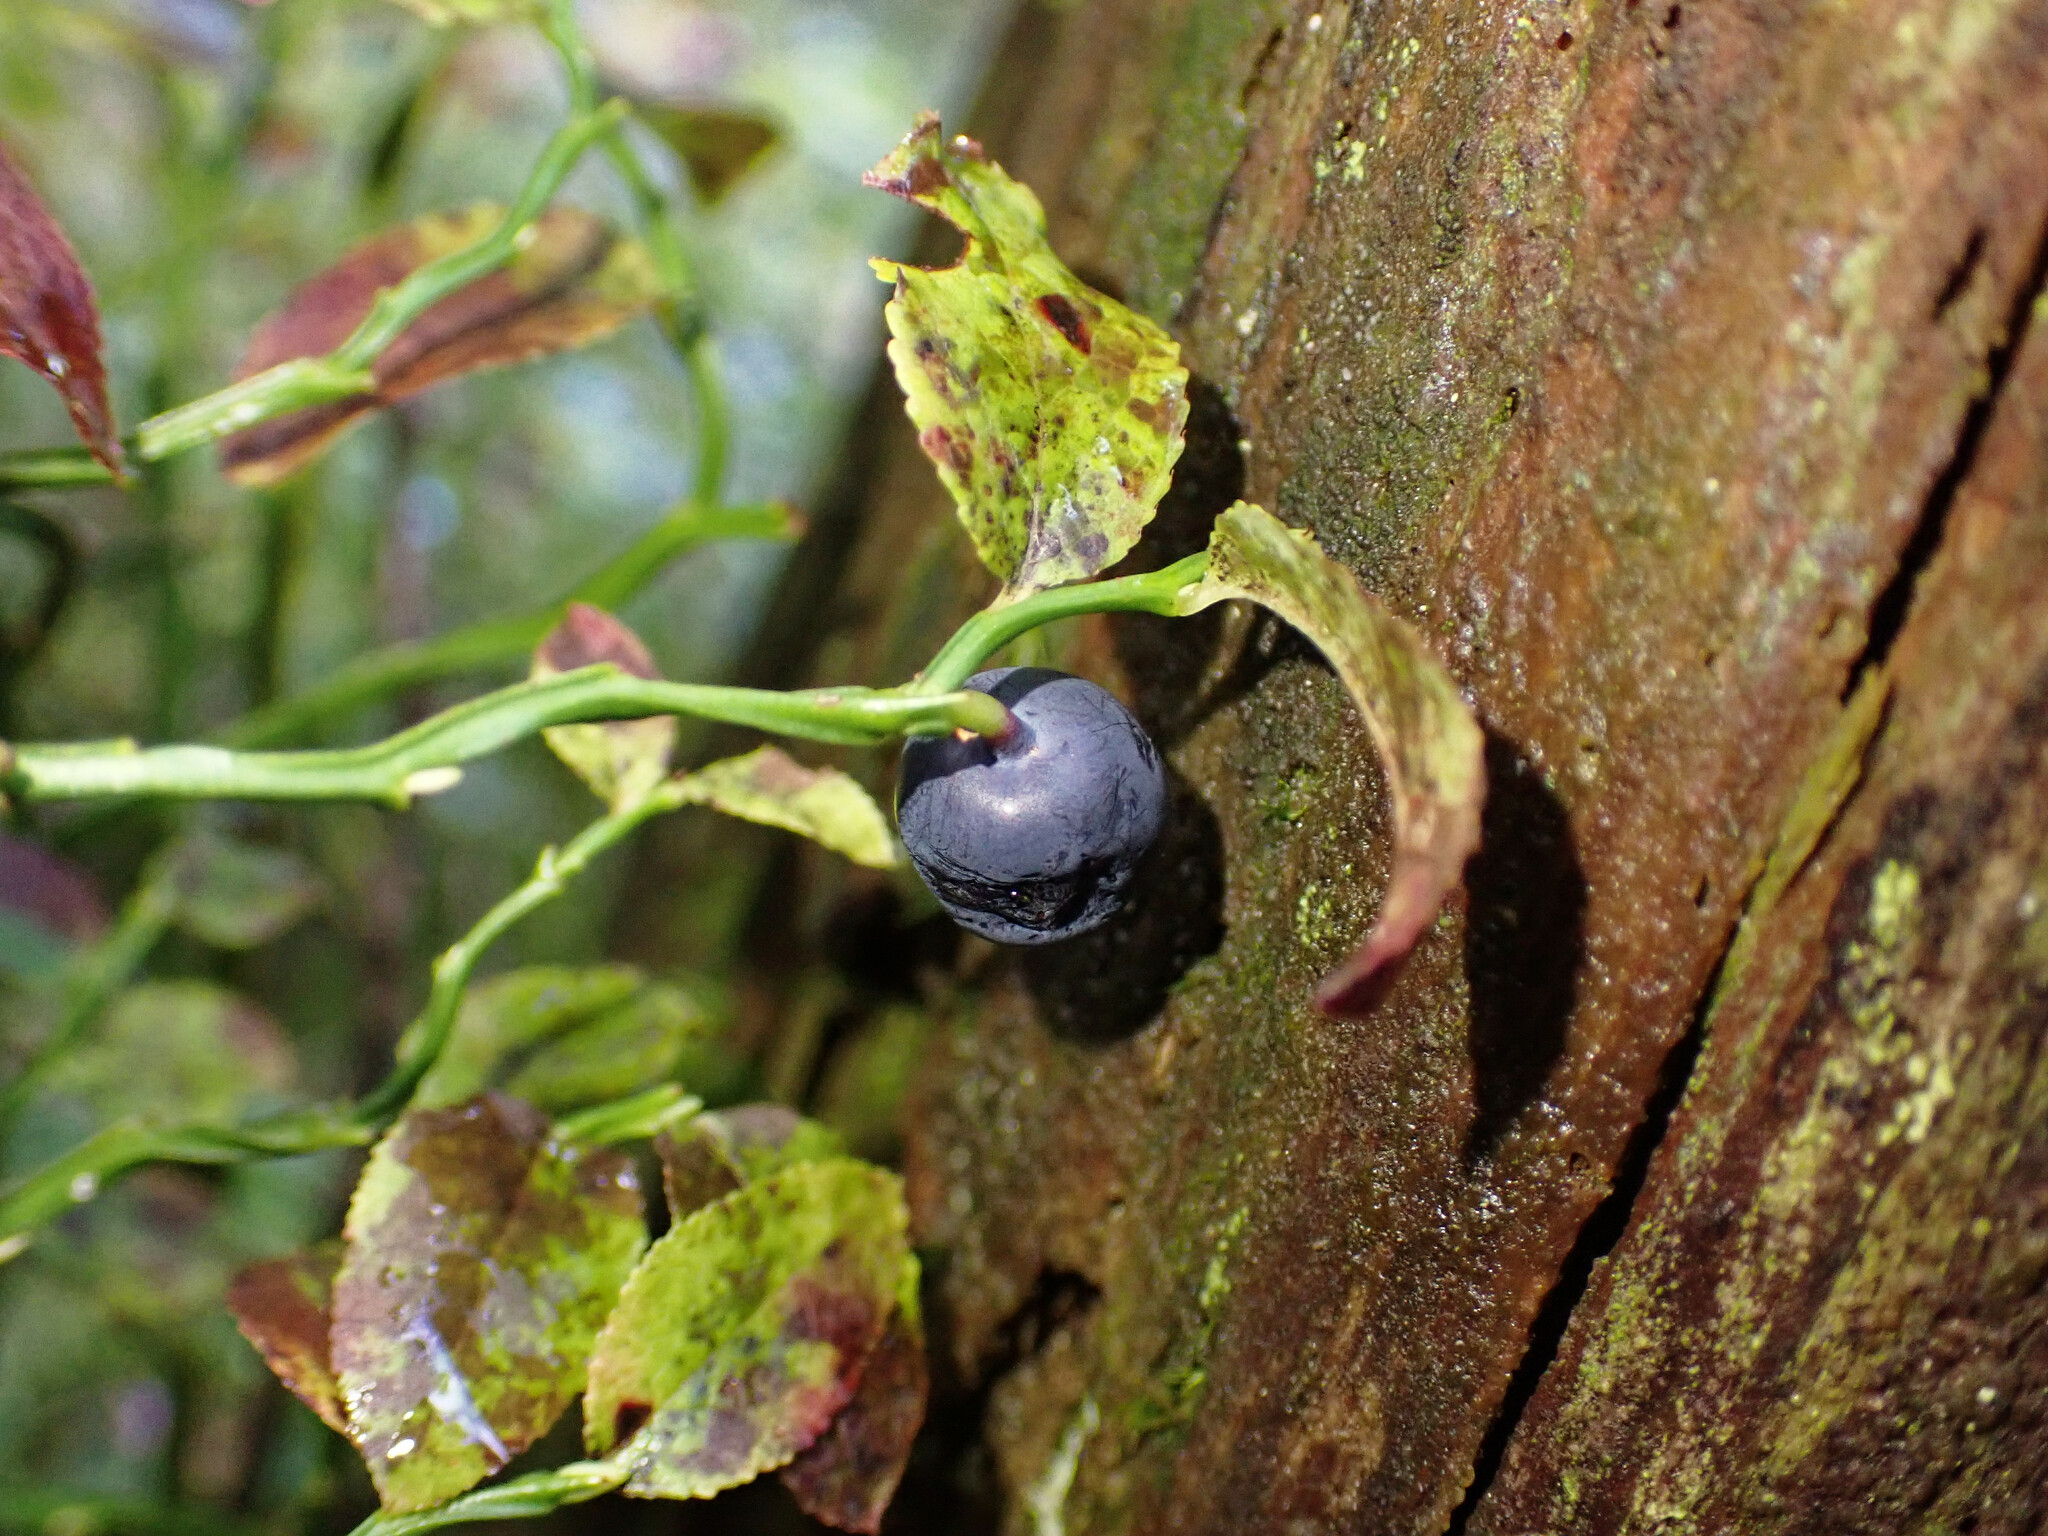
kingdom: Plantae
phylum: Tracheophyta
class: Magnoliopsida
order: Ericales
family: Ericaceae
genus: Vaccinium
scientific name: Vaccinium myrtillus
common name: Bilberry
